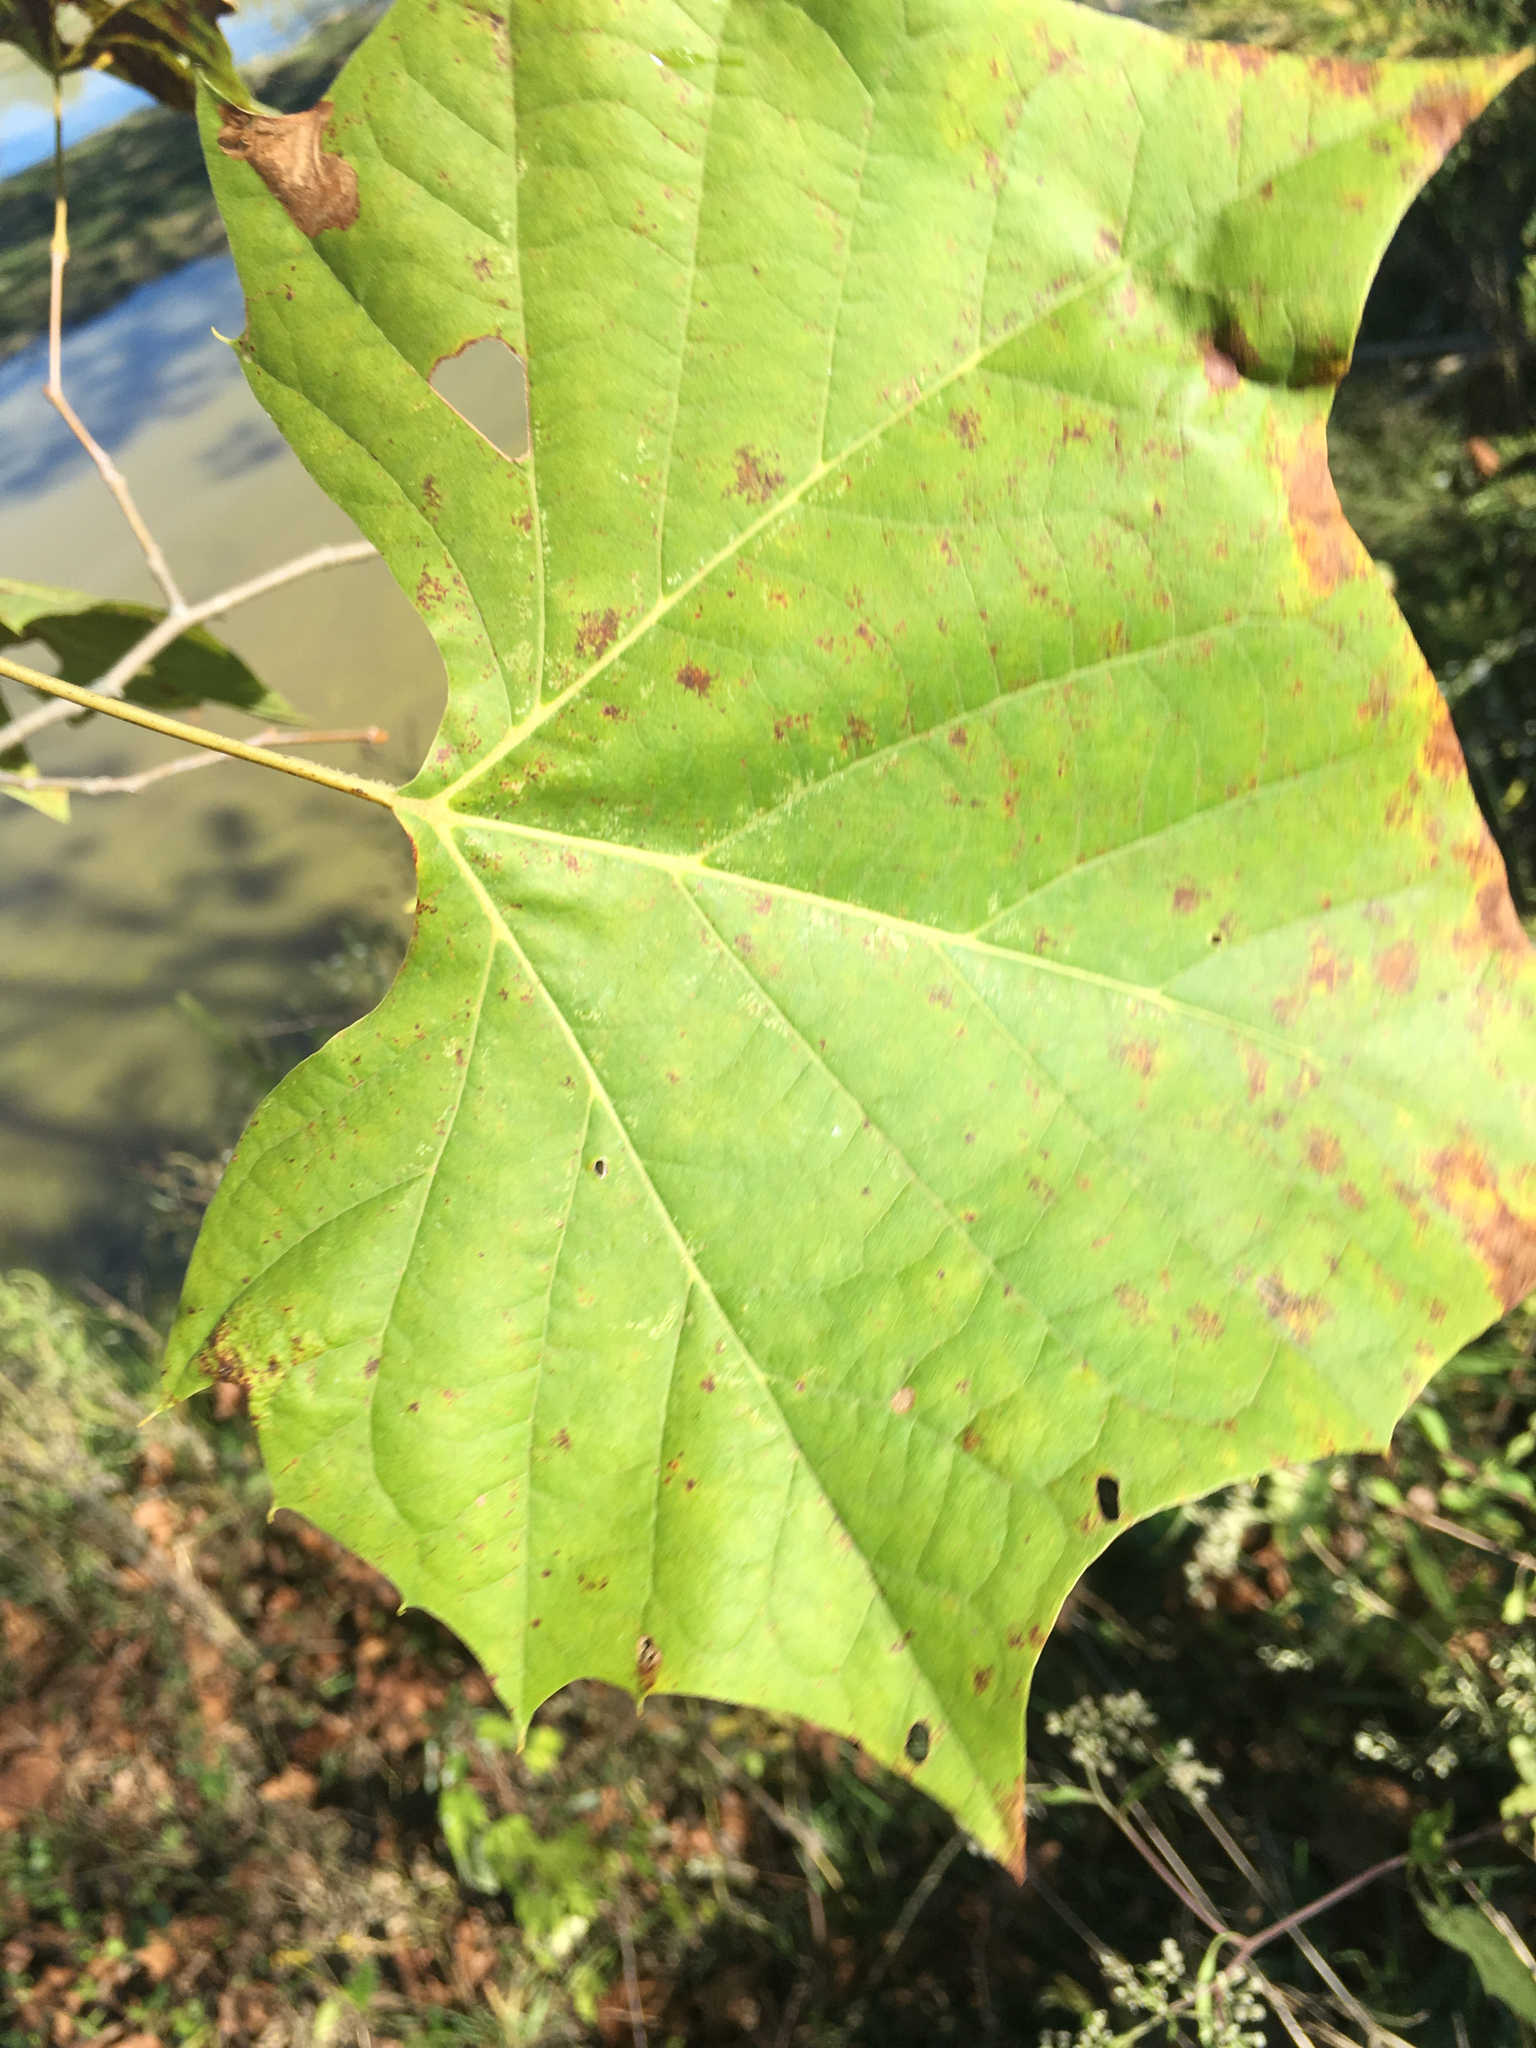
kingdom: Plantae
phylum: Tracheophyta
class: Magnoliopsida
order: Proteales
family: Platanaceae
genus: Platanus
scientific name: Platanus occidentalis
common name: American sycamore
